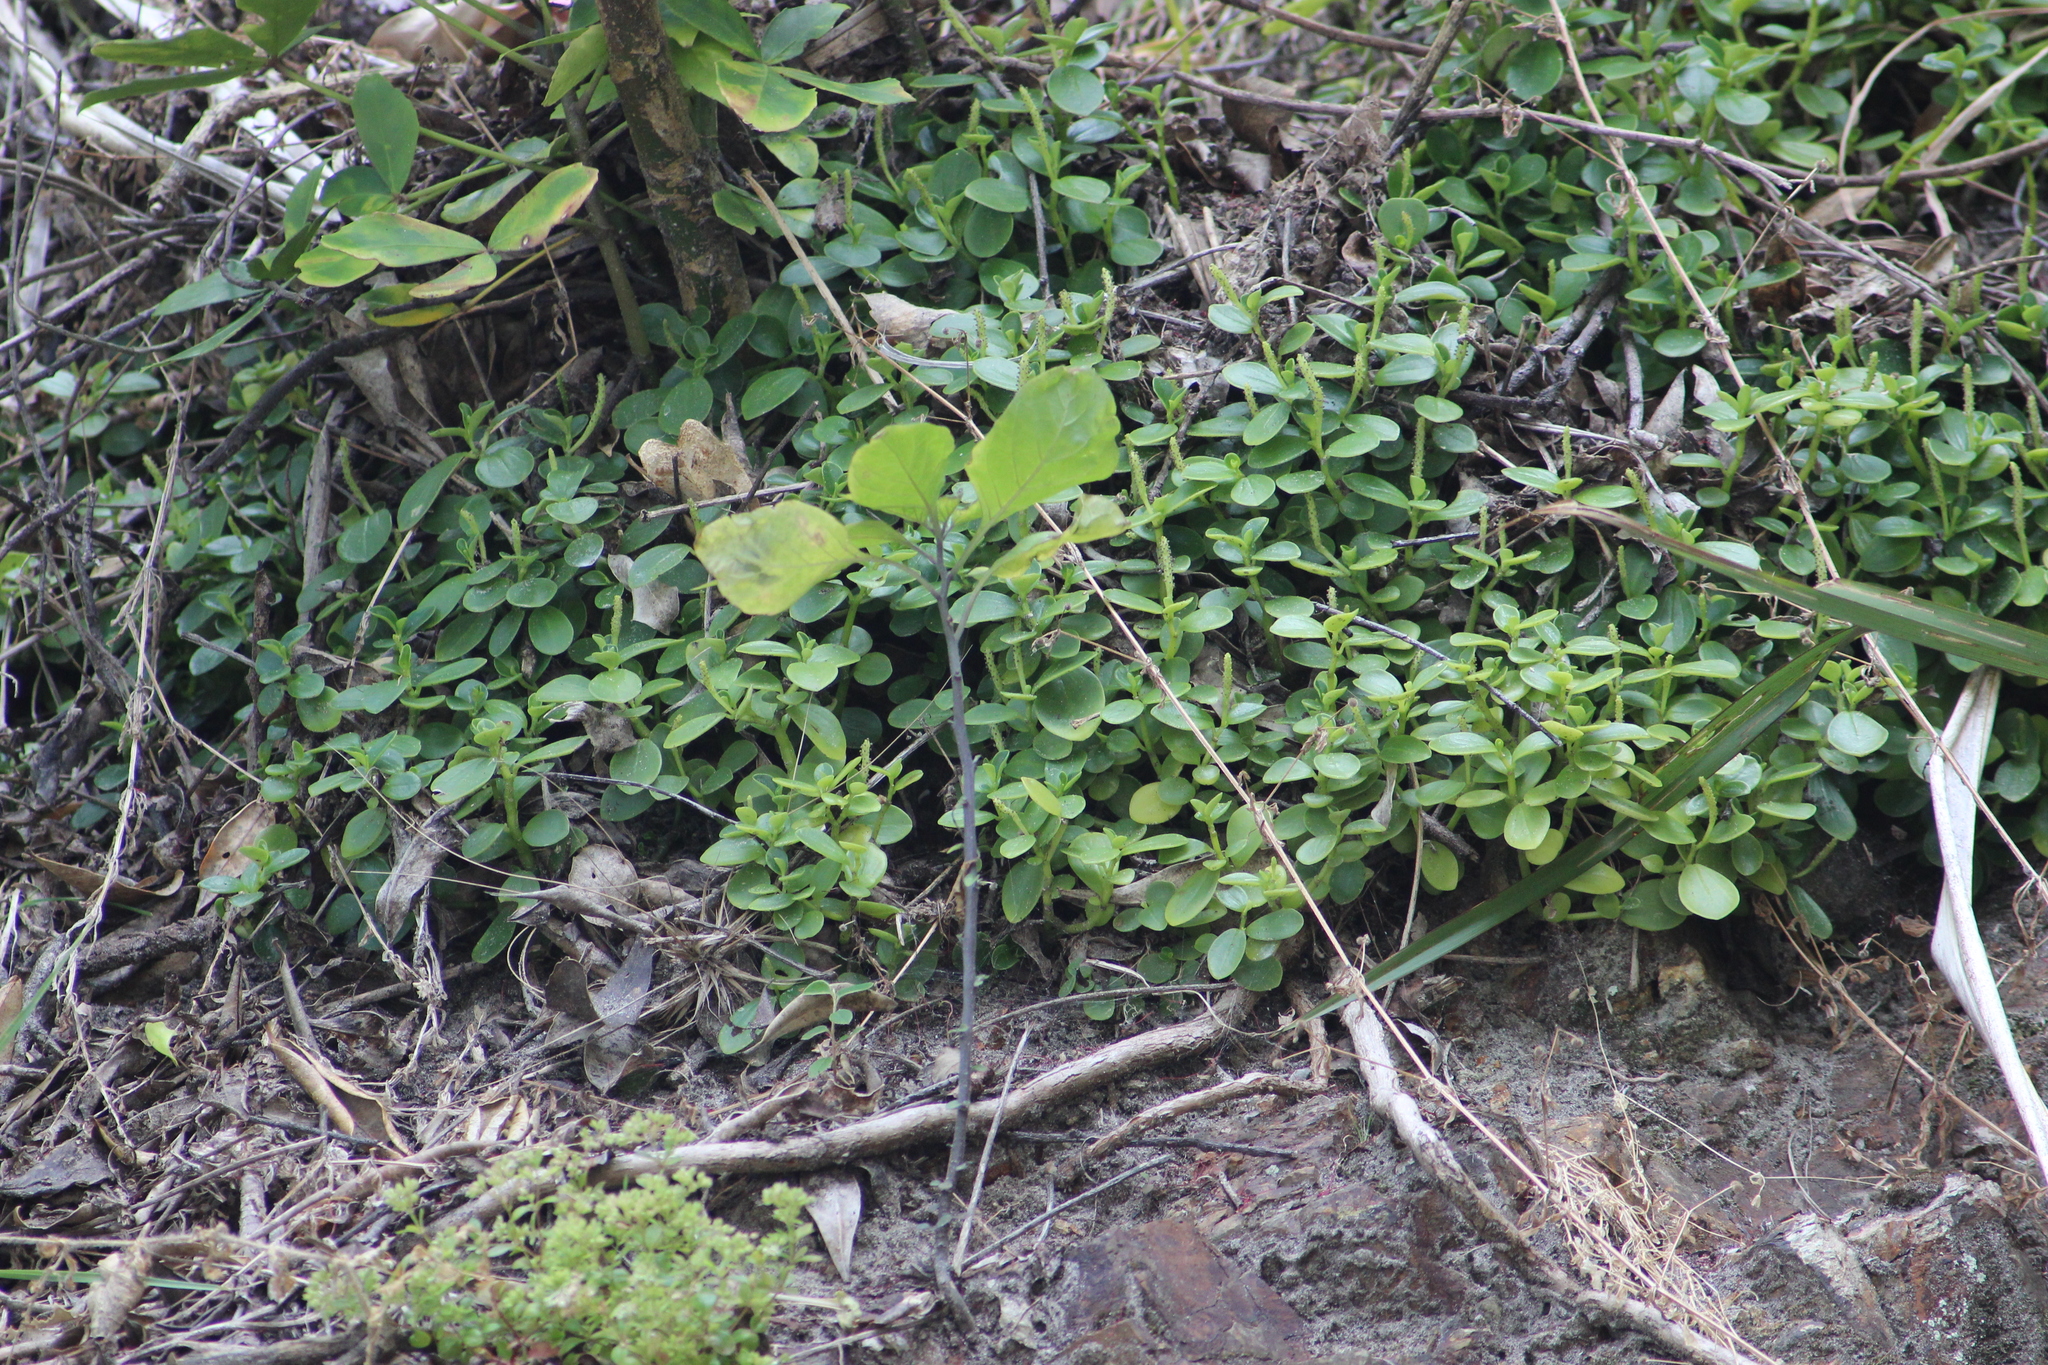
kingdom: Plantae
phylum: Tracheophyta
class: Magnoliopsida
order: Piperales
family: Piperaceae
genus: Peperomia
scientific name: Peperomia urvilleana
